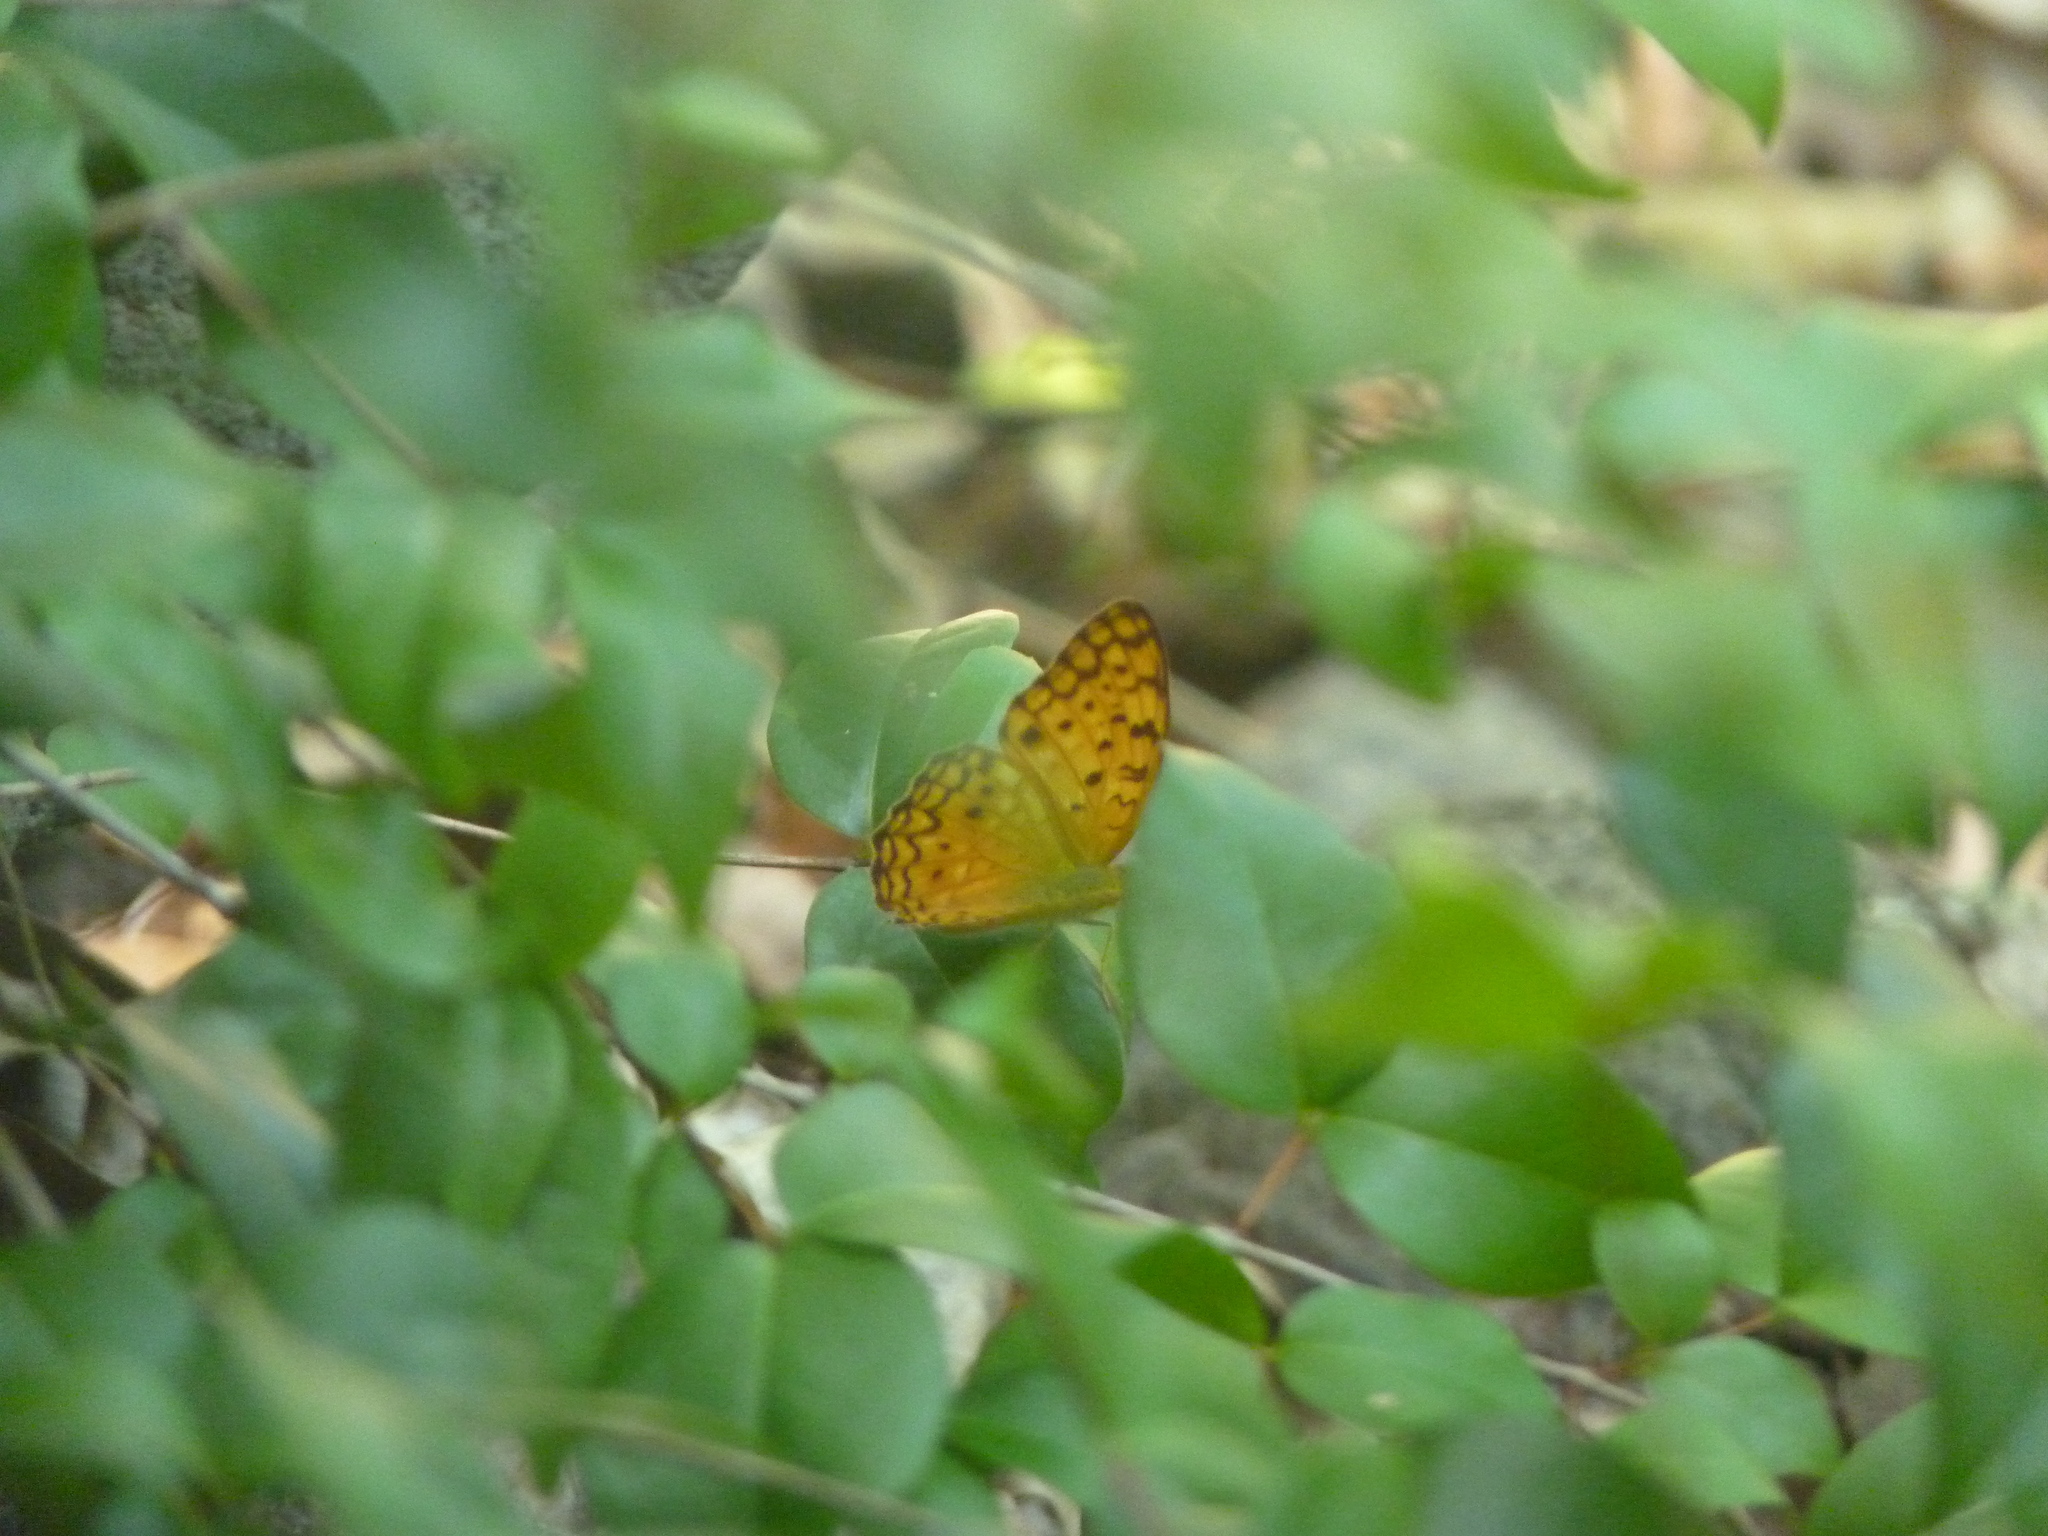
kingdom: Animalia
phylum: Arthropoda
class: Insecta
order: Lepidoptera
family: Nymphalidae
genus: Phalanta
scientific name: Phalanta phalantha
